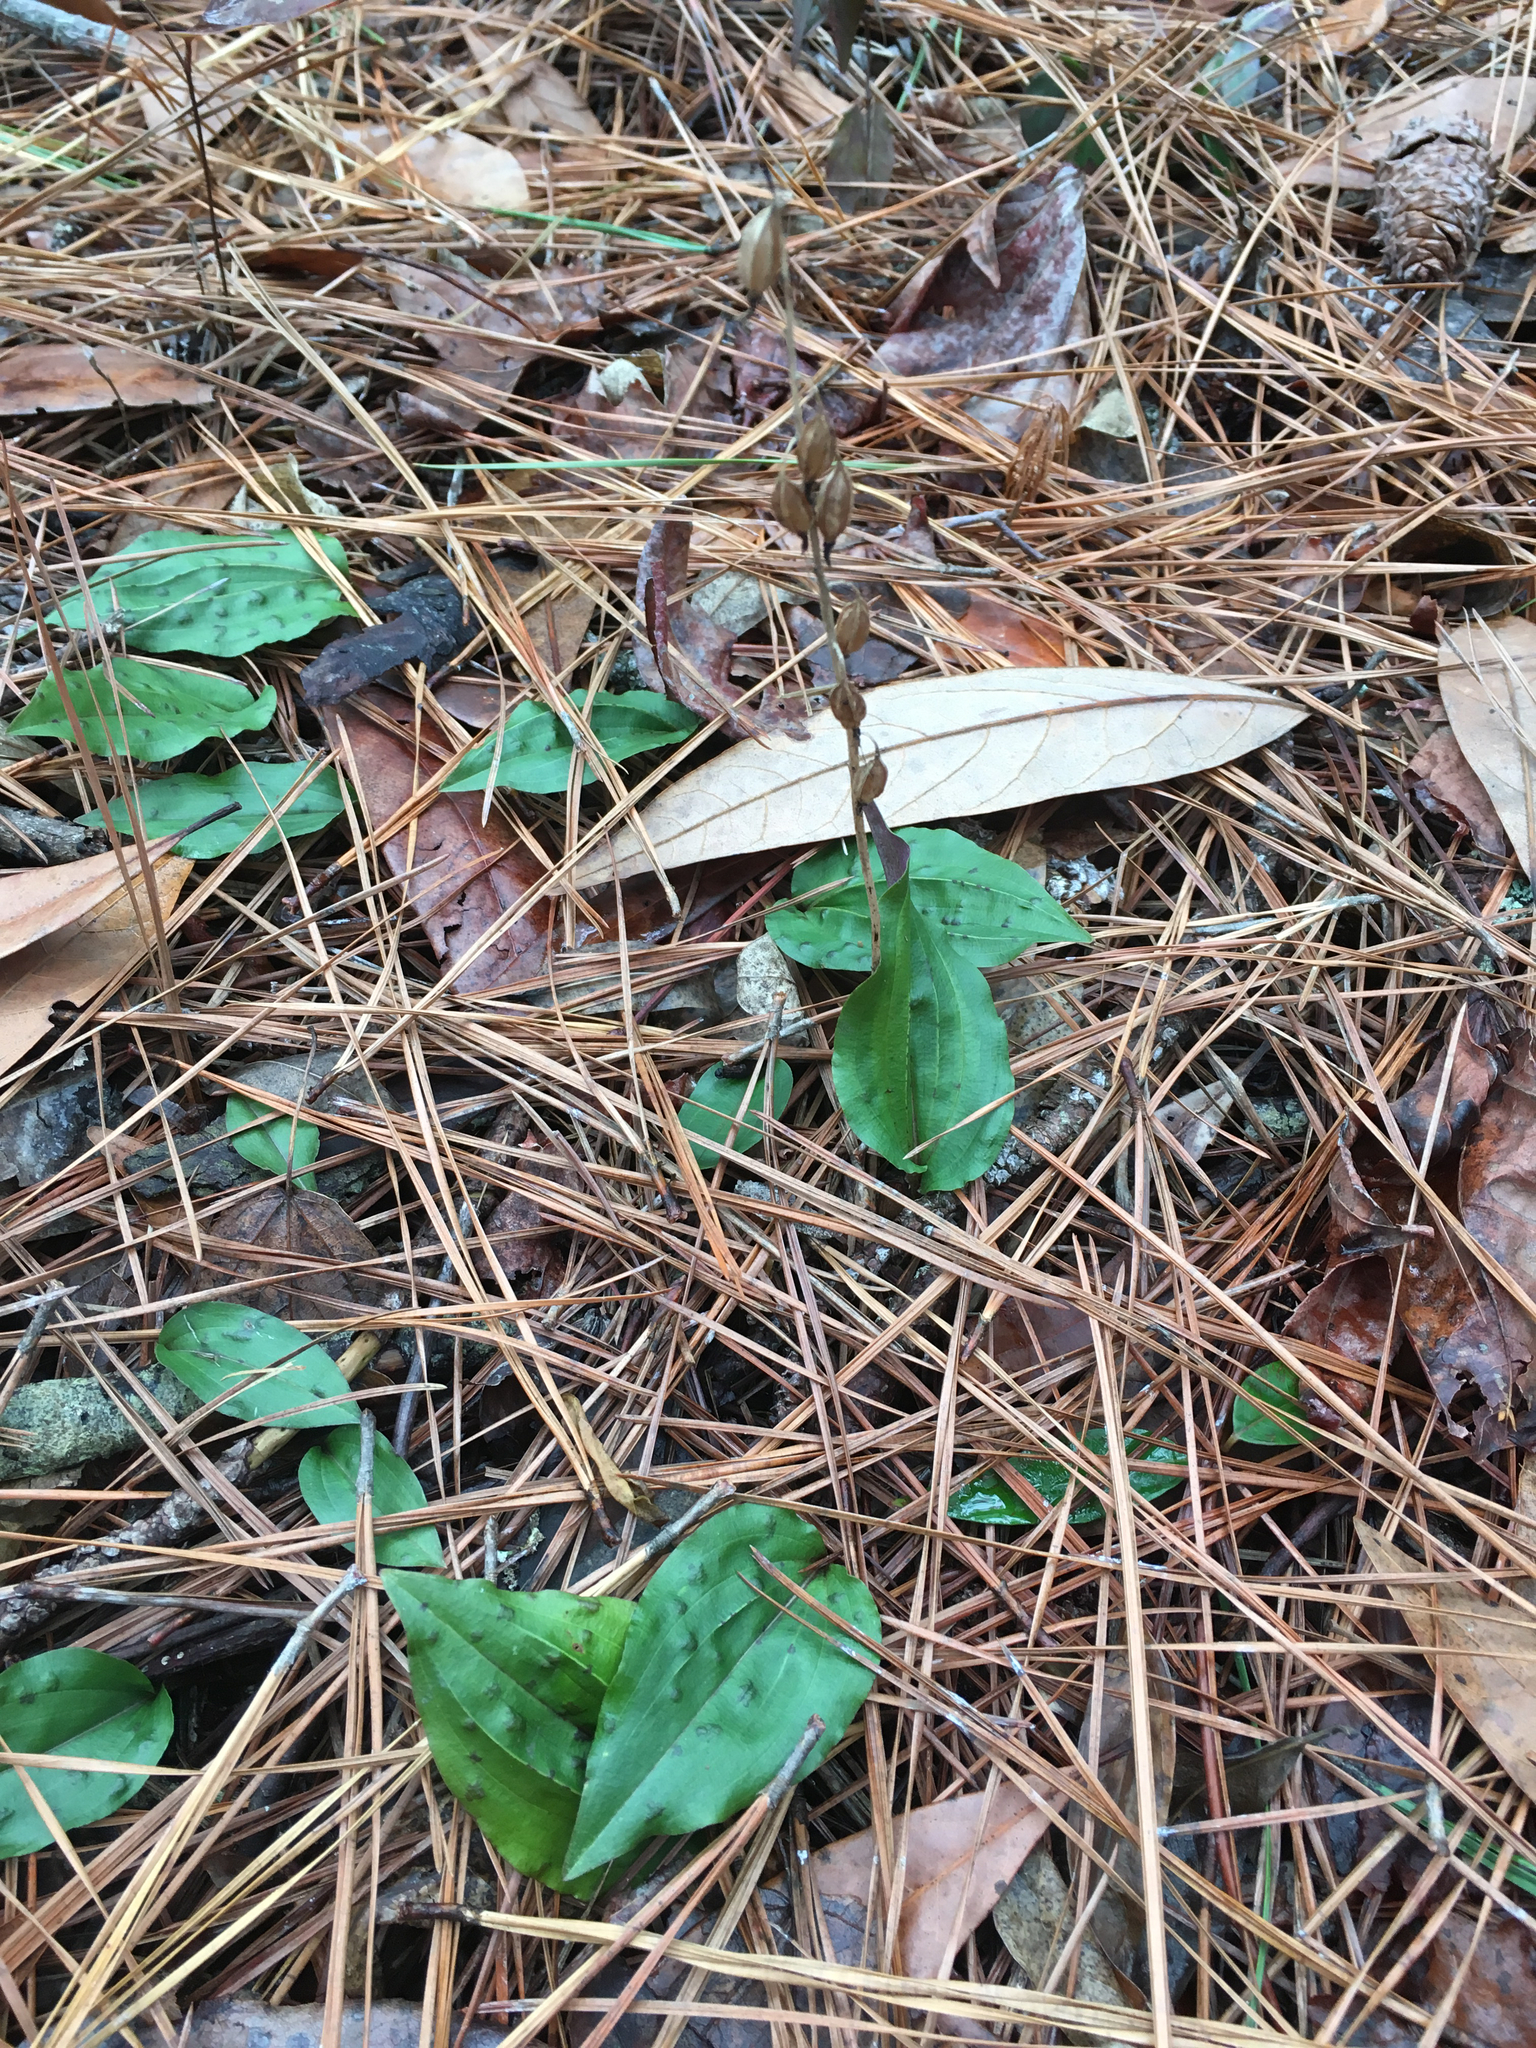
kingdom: Plantae
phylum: Tracheophyta
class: Liliopsida
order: Asparagales
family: Orchidaceae
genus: Tipularia
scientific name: Tipularia discolor
